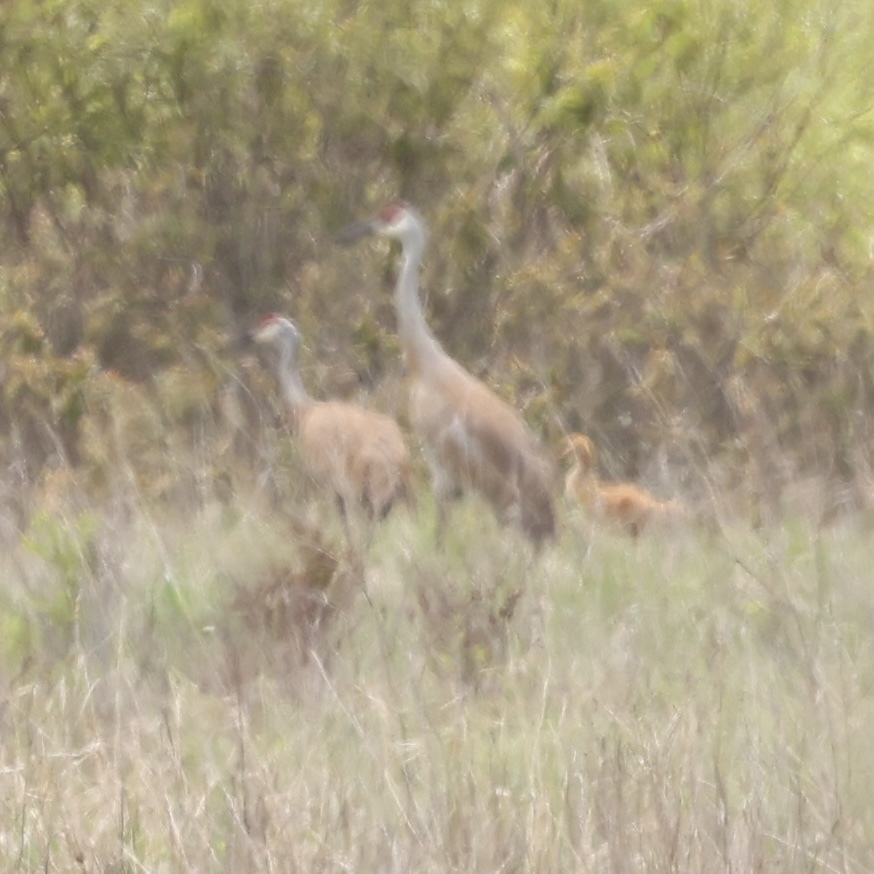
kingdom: Animalia
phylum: Chordata
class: Aves
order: Gruiformes
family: Gruidae
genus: Grus
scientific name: Grus canadensis
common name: Sandhill crane
